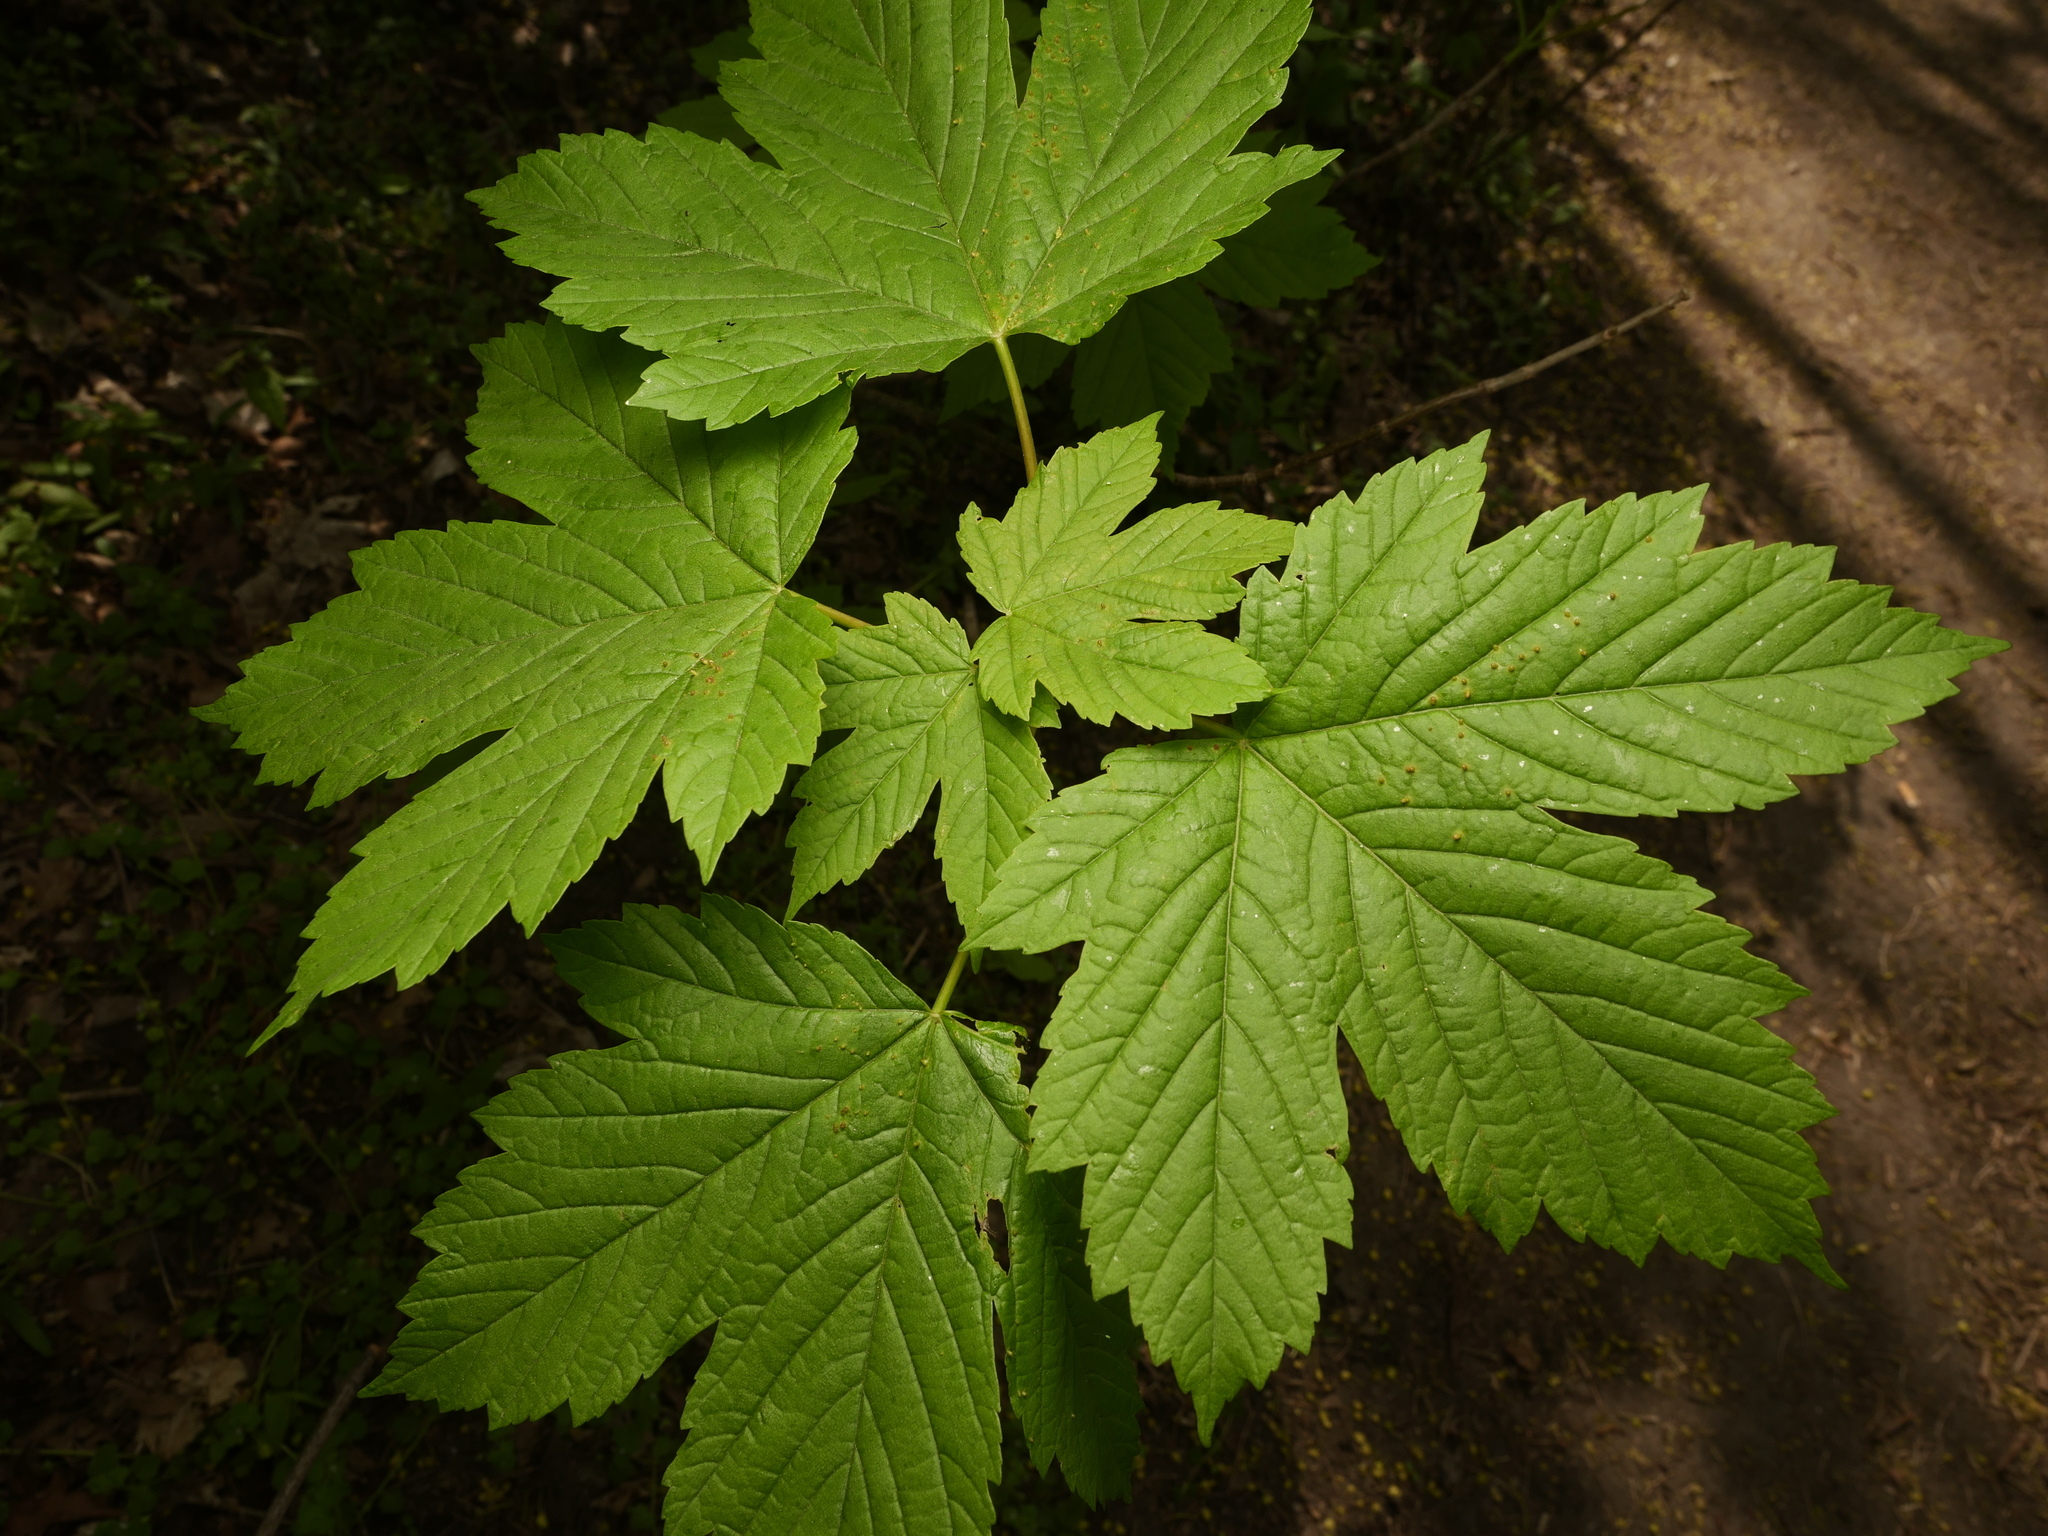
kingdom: Plantae
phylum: Tracheophyta
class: Magnoliopsida
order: Sapindales
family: Sapindaceae
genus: Acer
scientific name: Acer pseudoplatanus
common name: Sycamore
